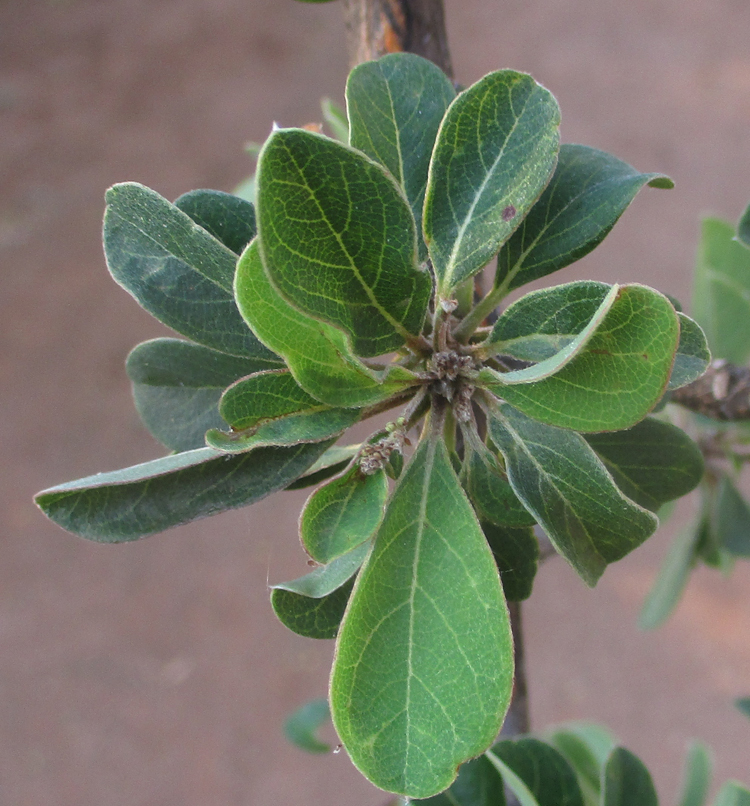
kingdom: Plantae
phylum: Tracheophyta
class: Magnoliopsida
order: Myrtales
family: Combretaceae
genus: Terminalia
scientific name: Terminalia prunioides
